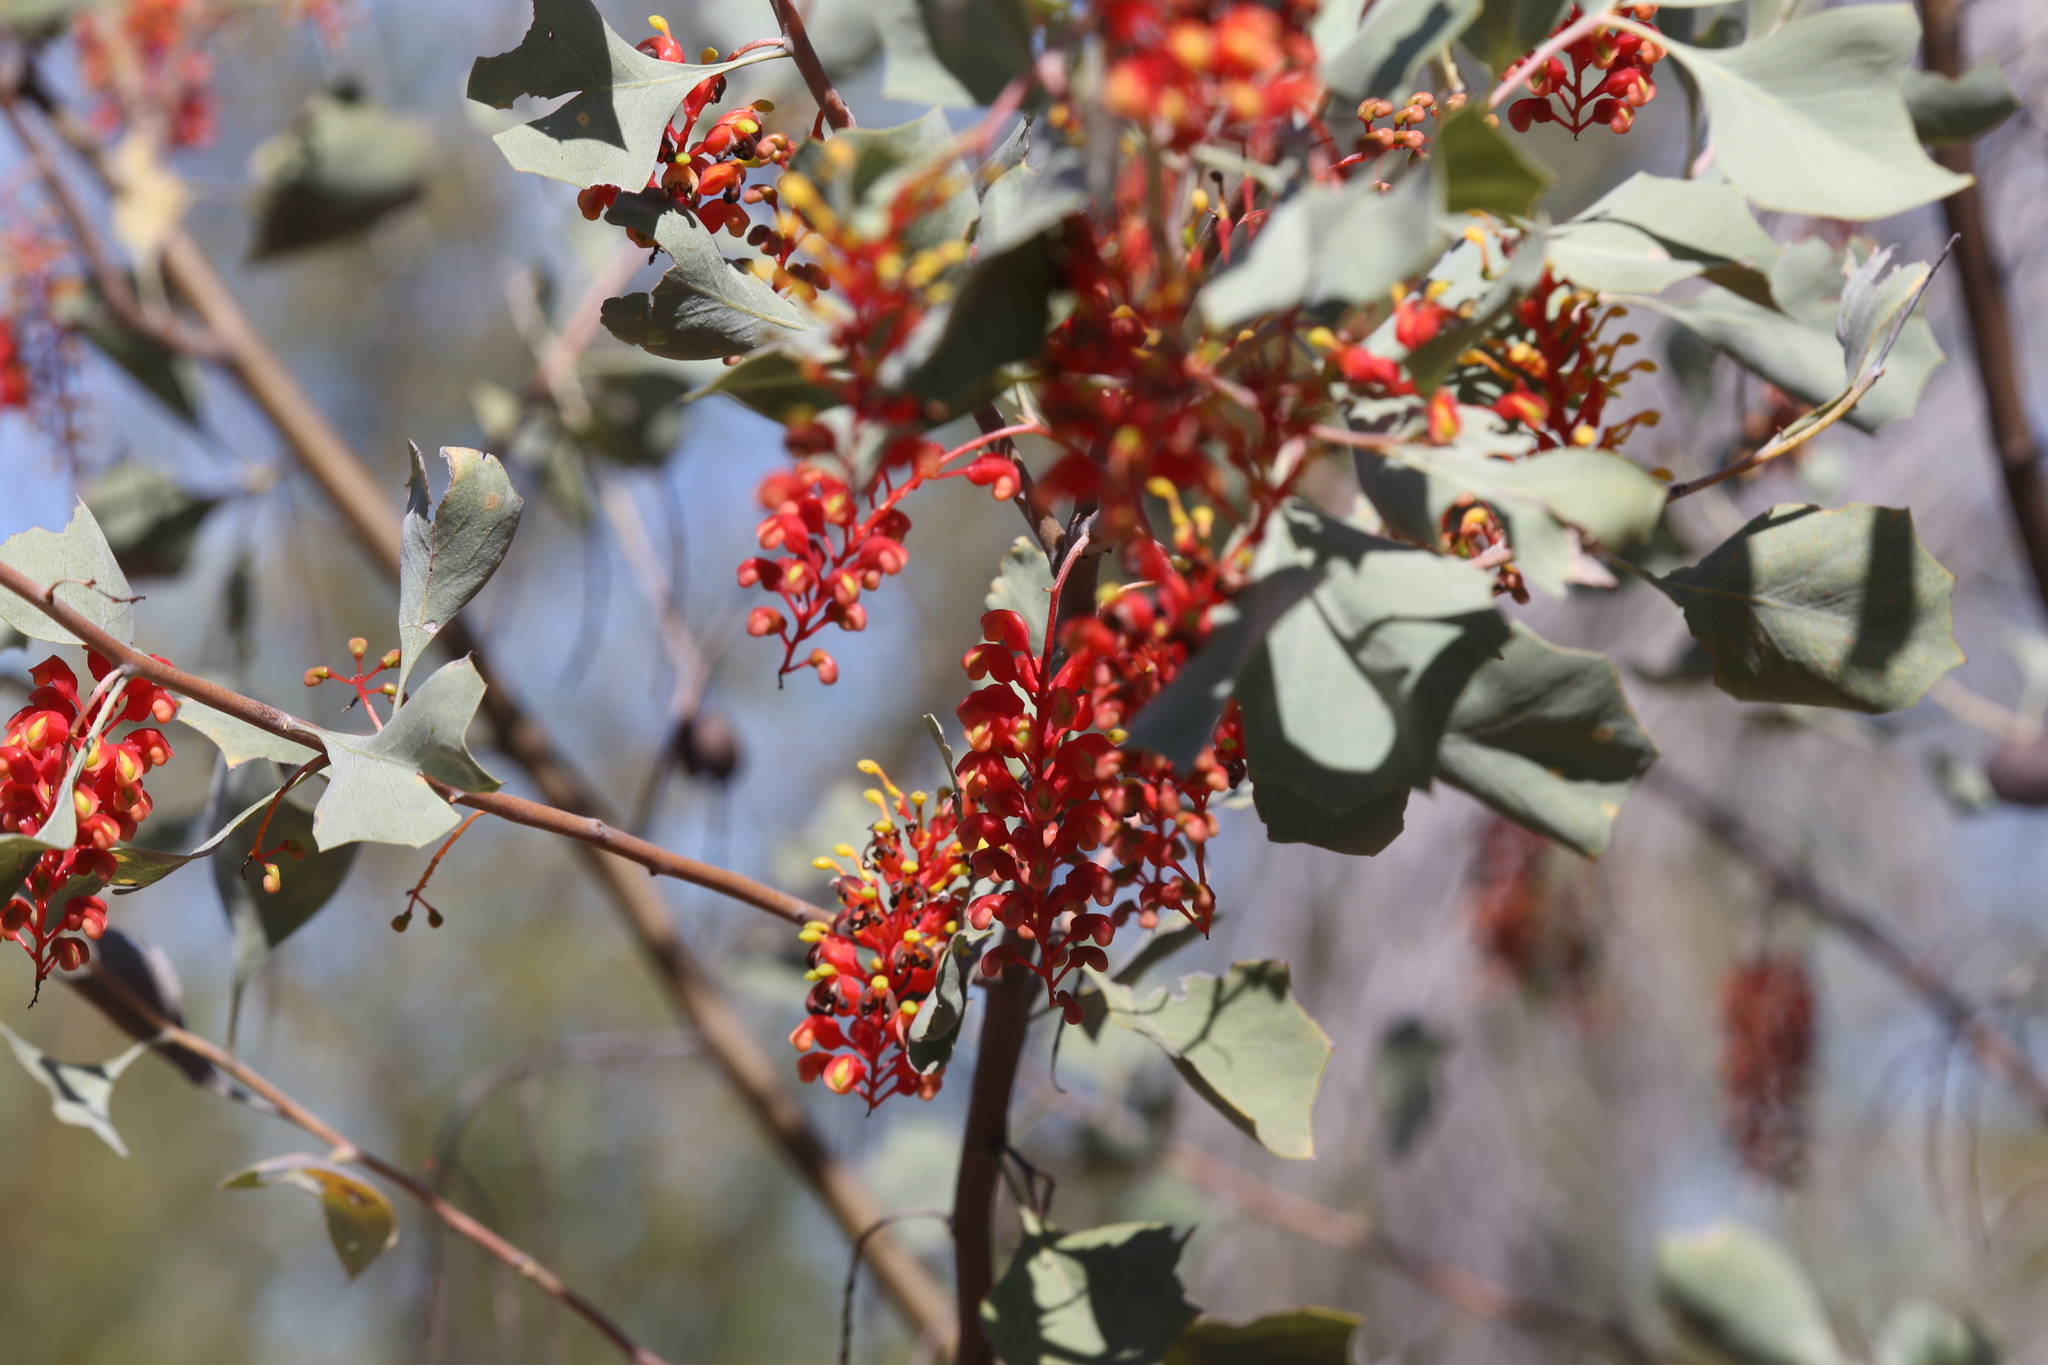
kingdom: Plantae
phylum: Tracheophyta
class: Magnoliopsida
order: Proteales
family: Proteaceae
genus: Grevillea
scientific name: Grevillea wickhamii
